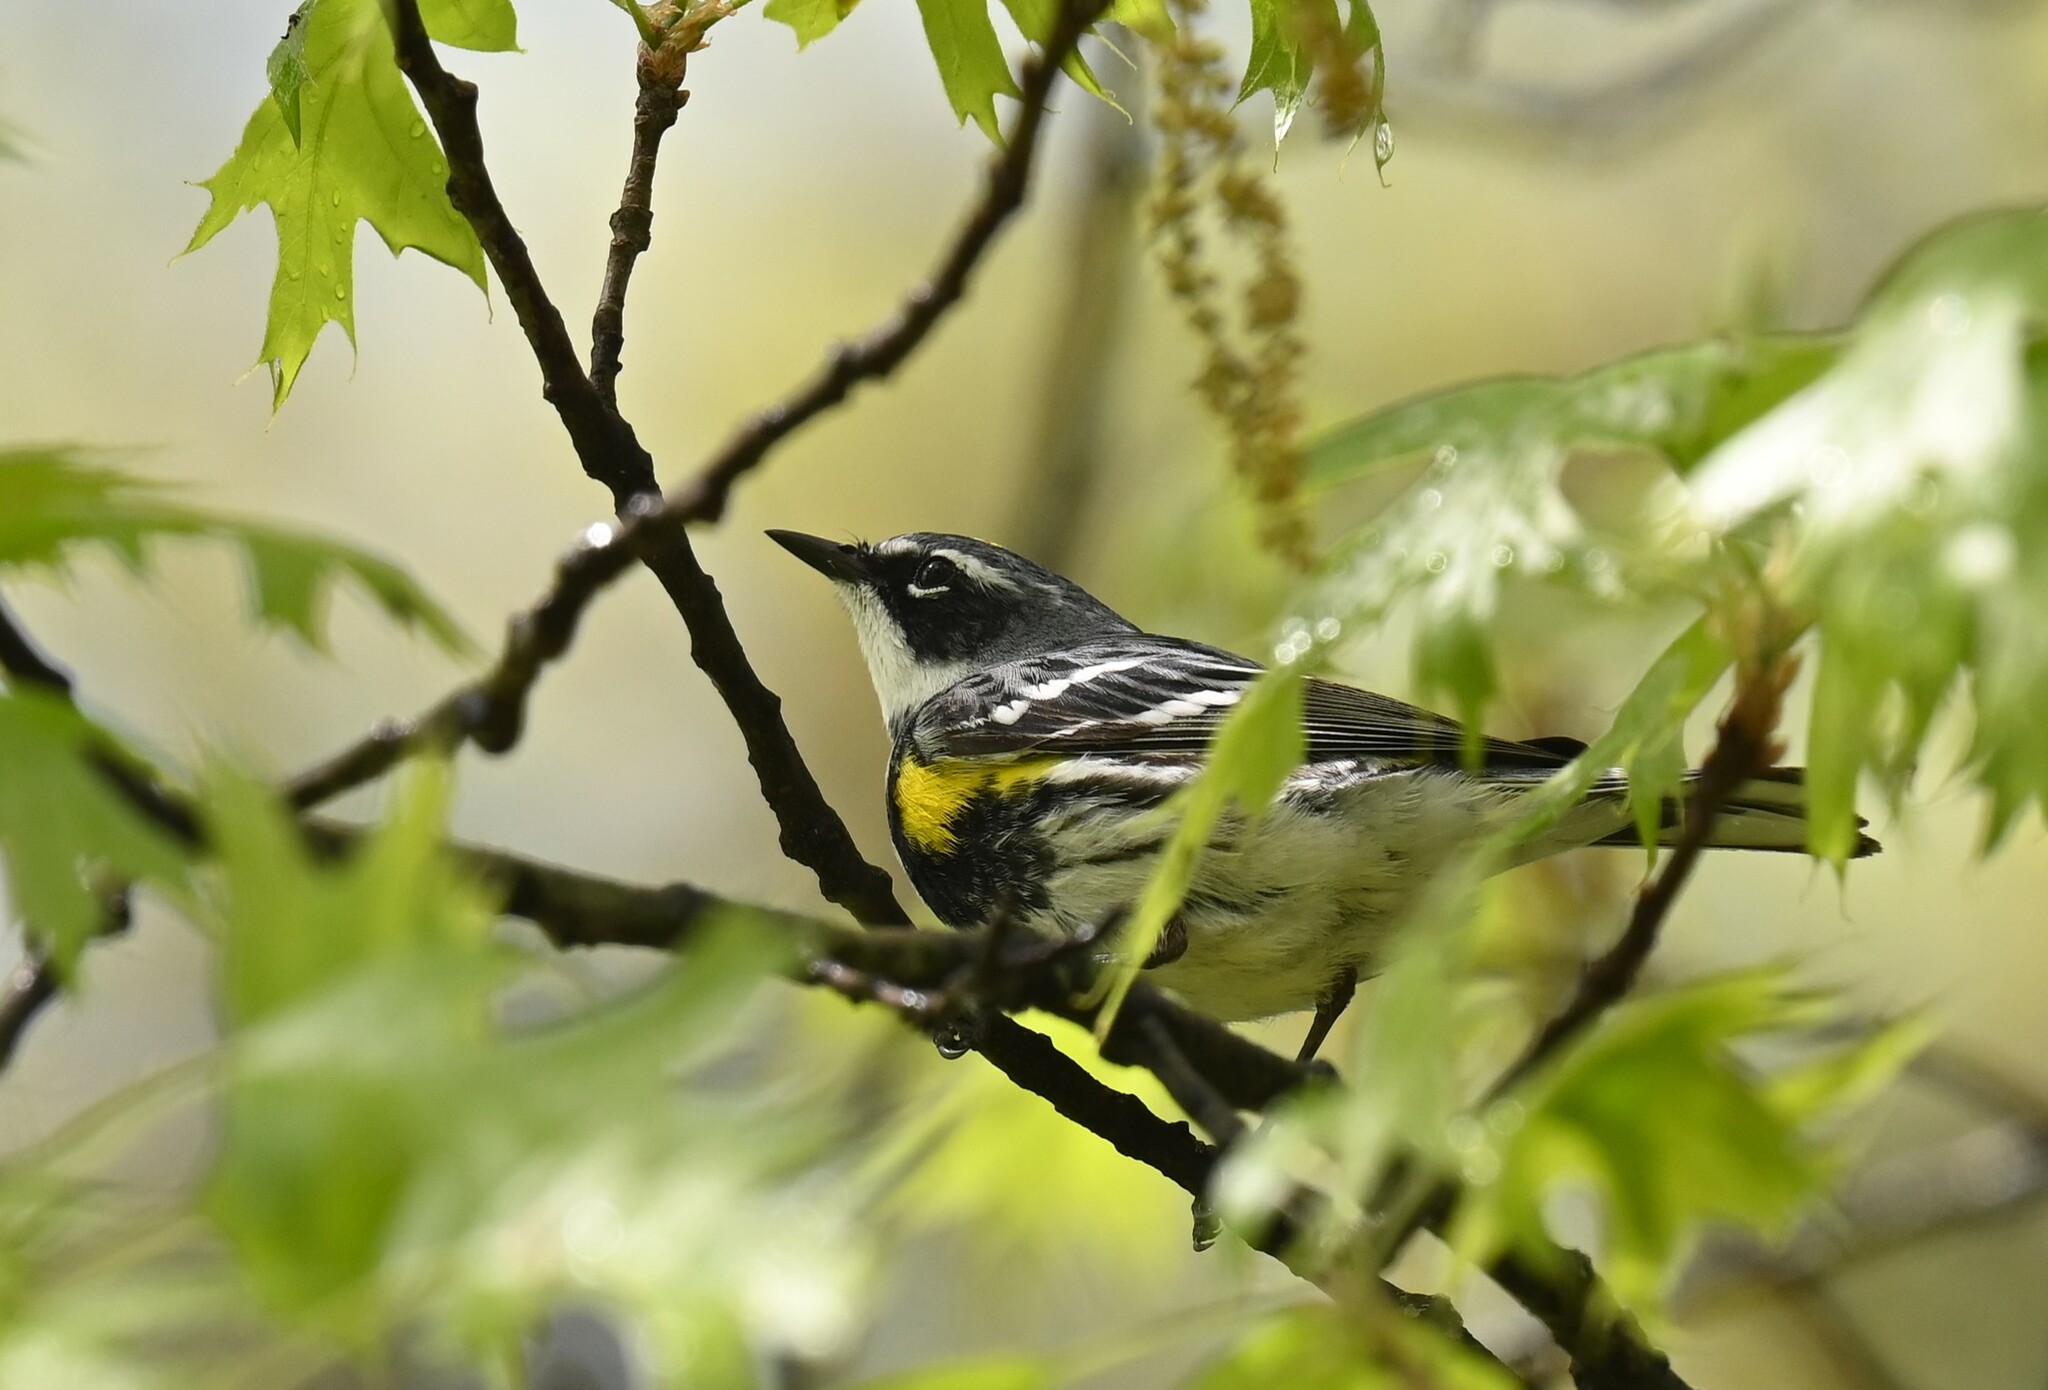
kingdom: Animalia
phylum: Chordata
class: Aves
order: Passeriformes
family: Parulidae
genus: Setophaga
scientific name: Setophaga coronata
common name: Myrtle warbler
